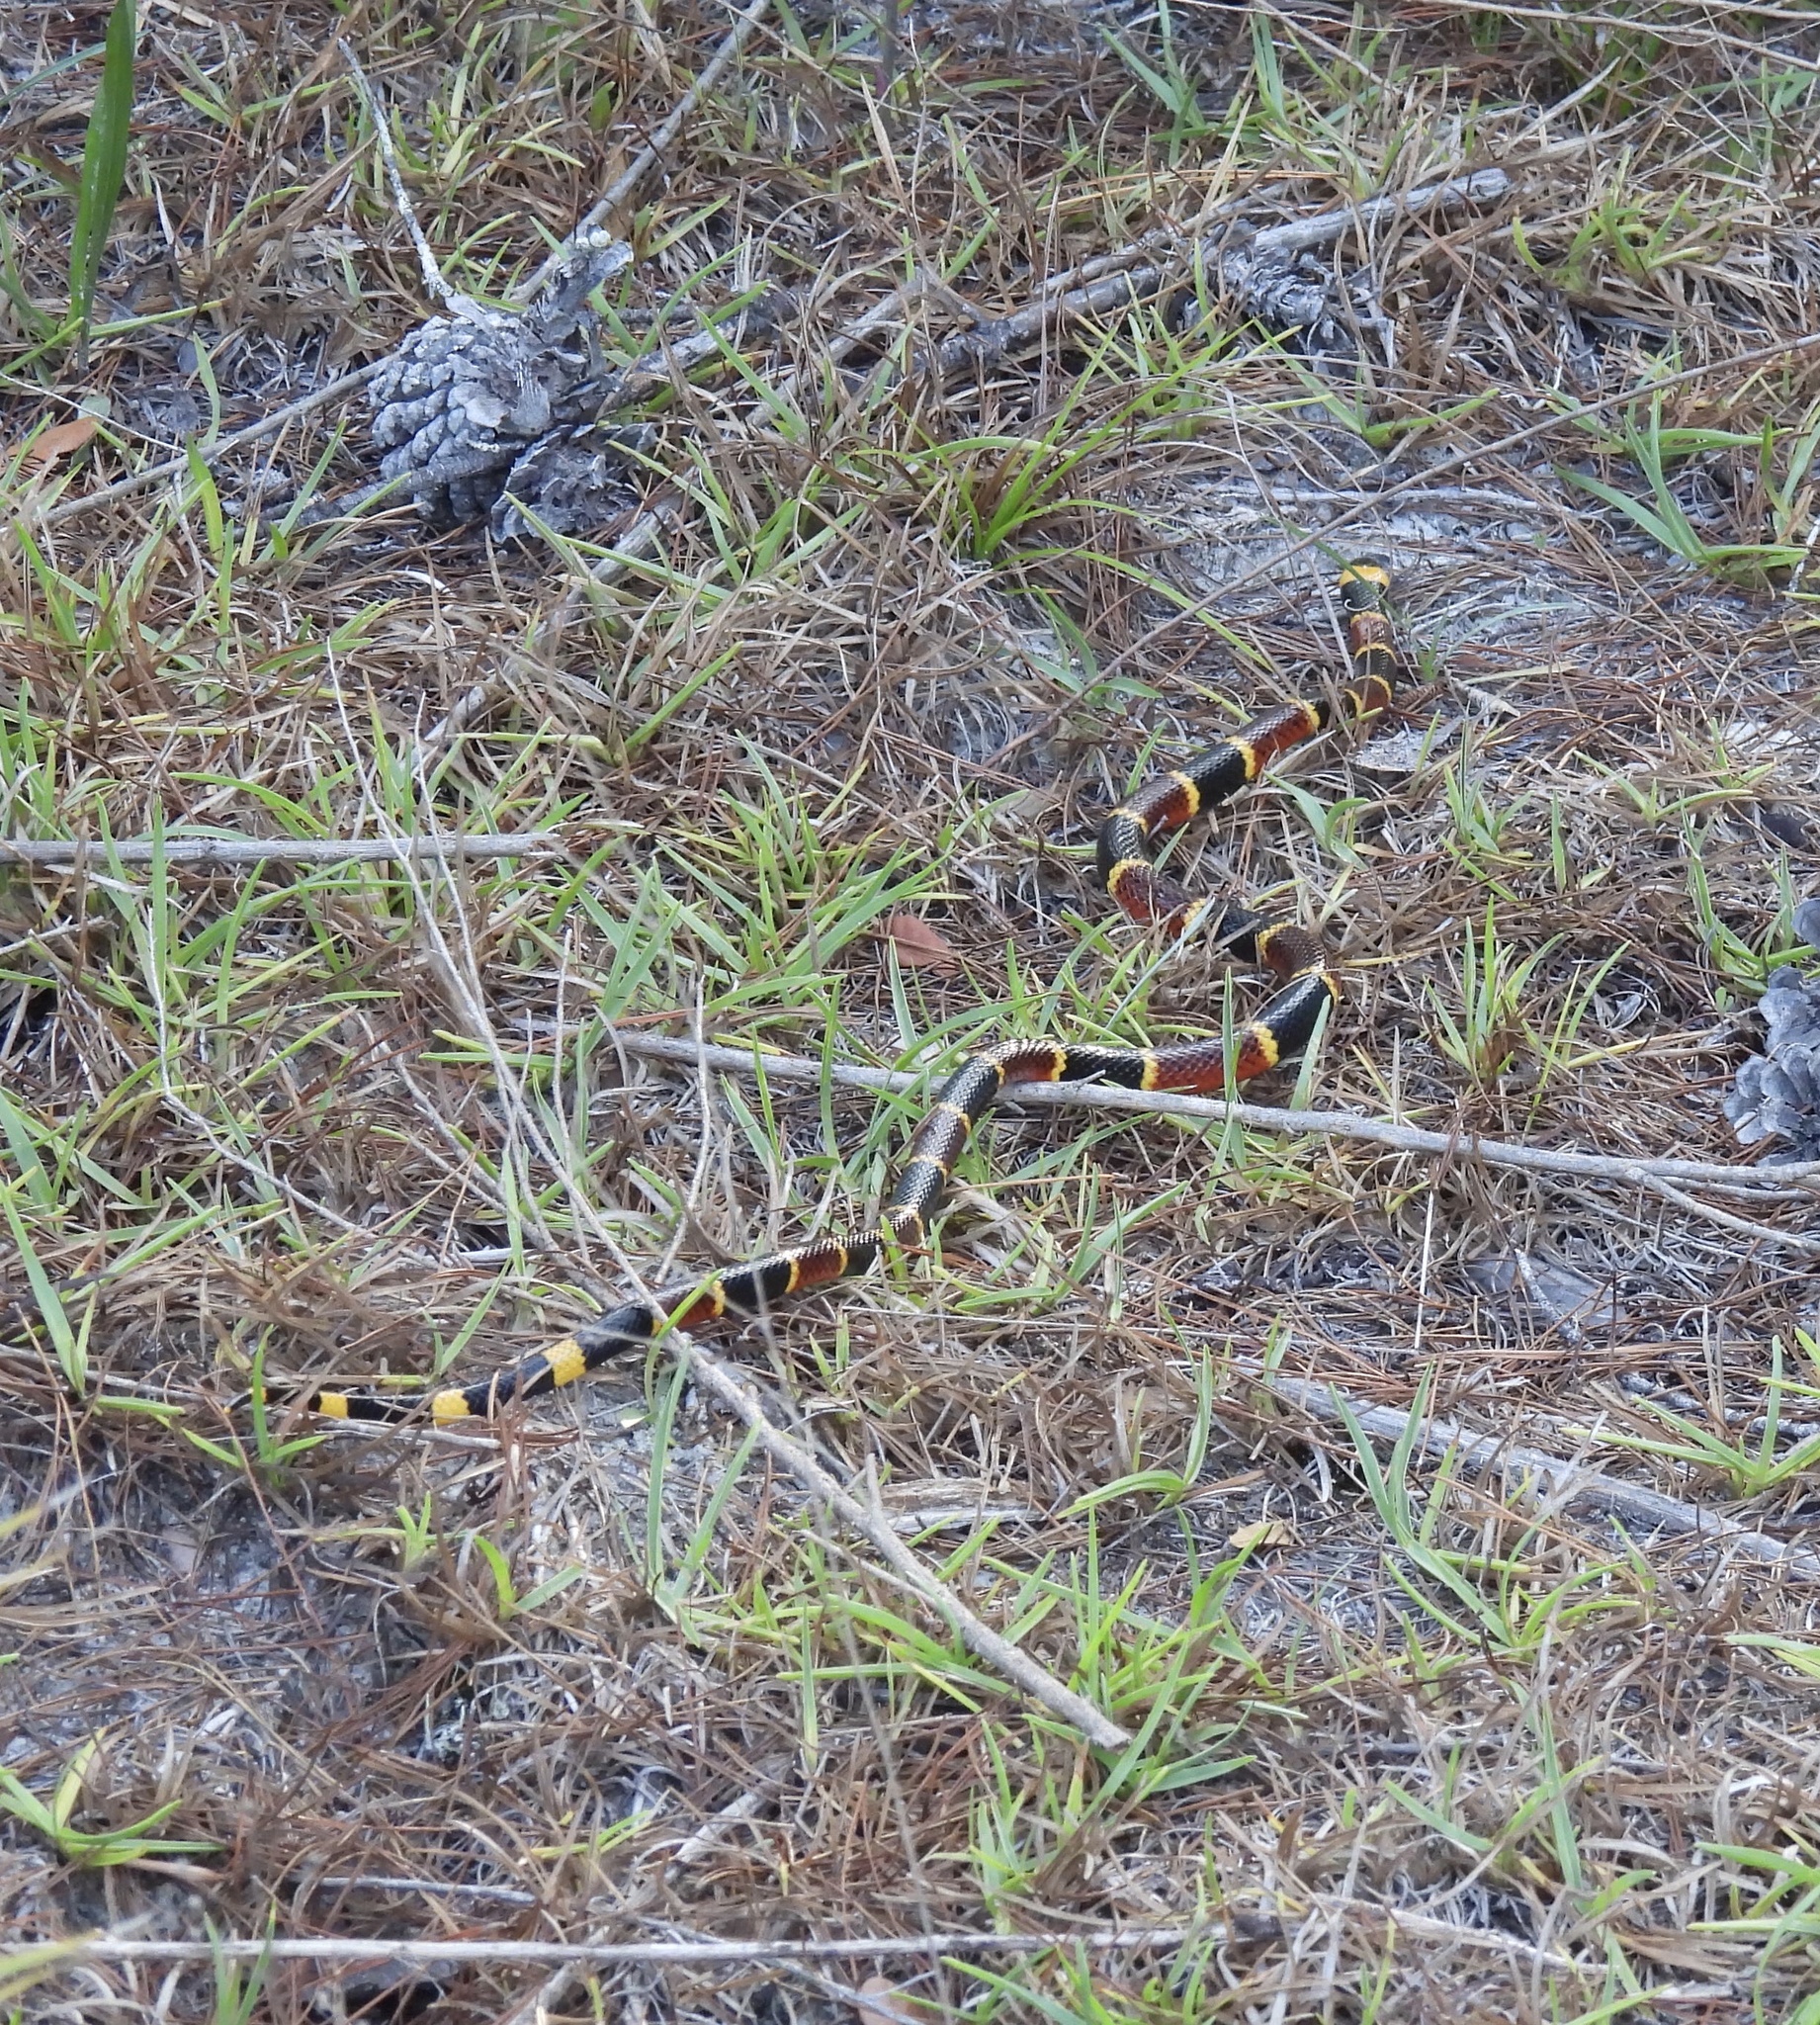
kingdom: Animalia
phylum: Chordata
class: Squamata
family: Elapidae
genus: Micrurus
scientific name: Micrurus fulvius
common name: Eastern coral snake
